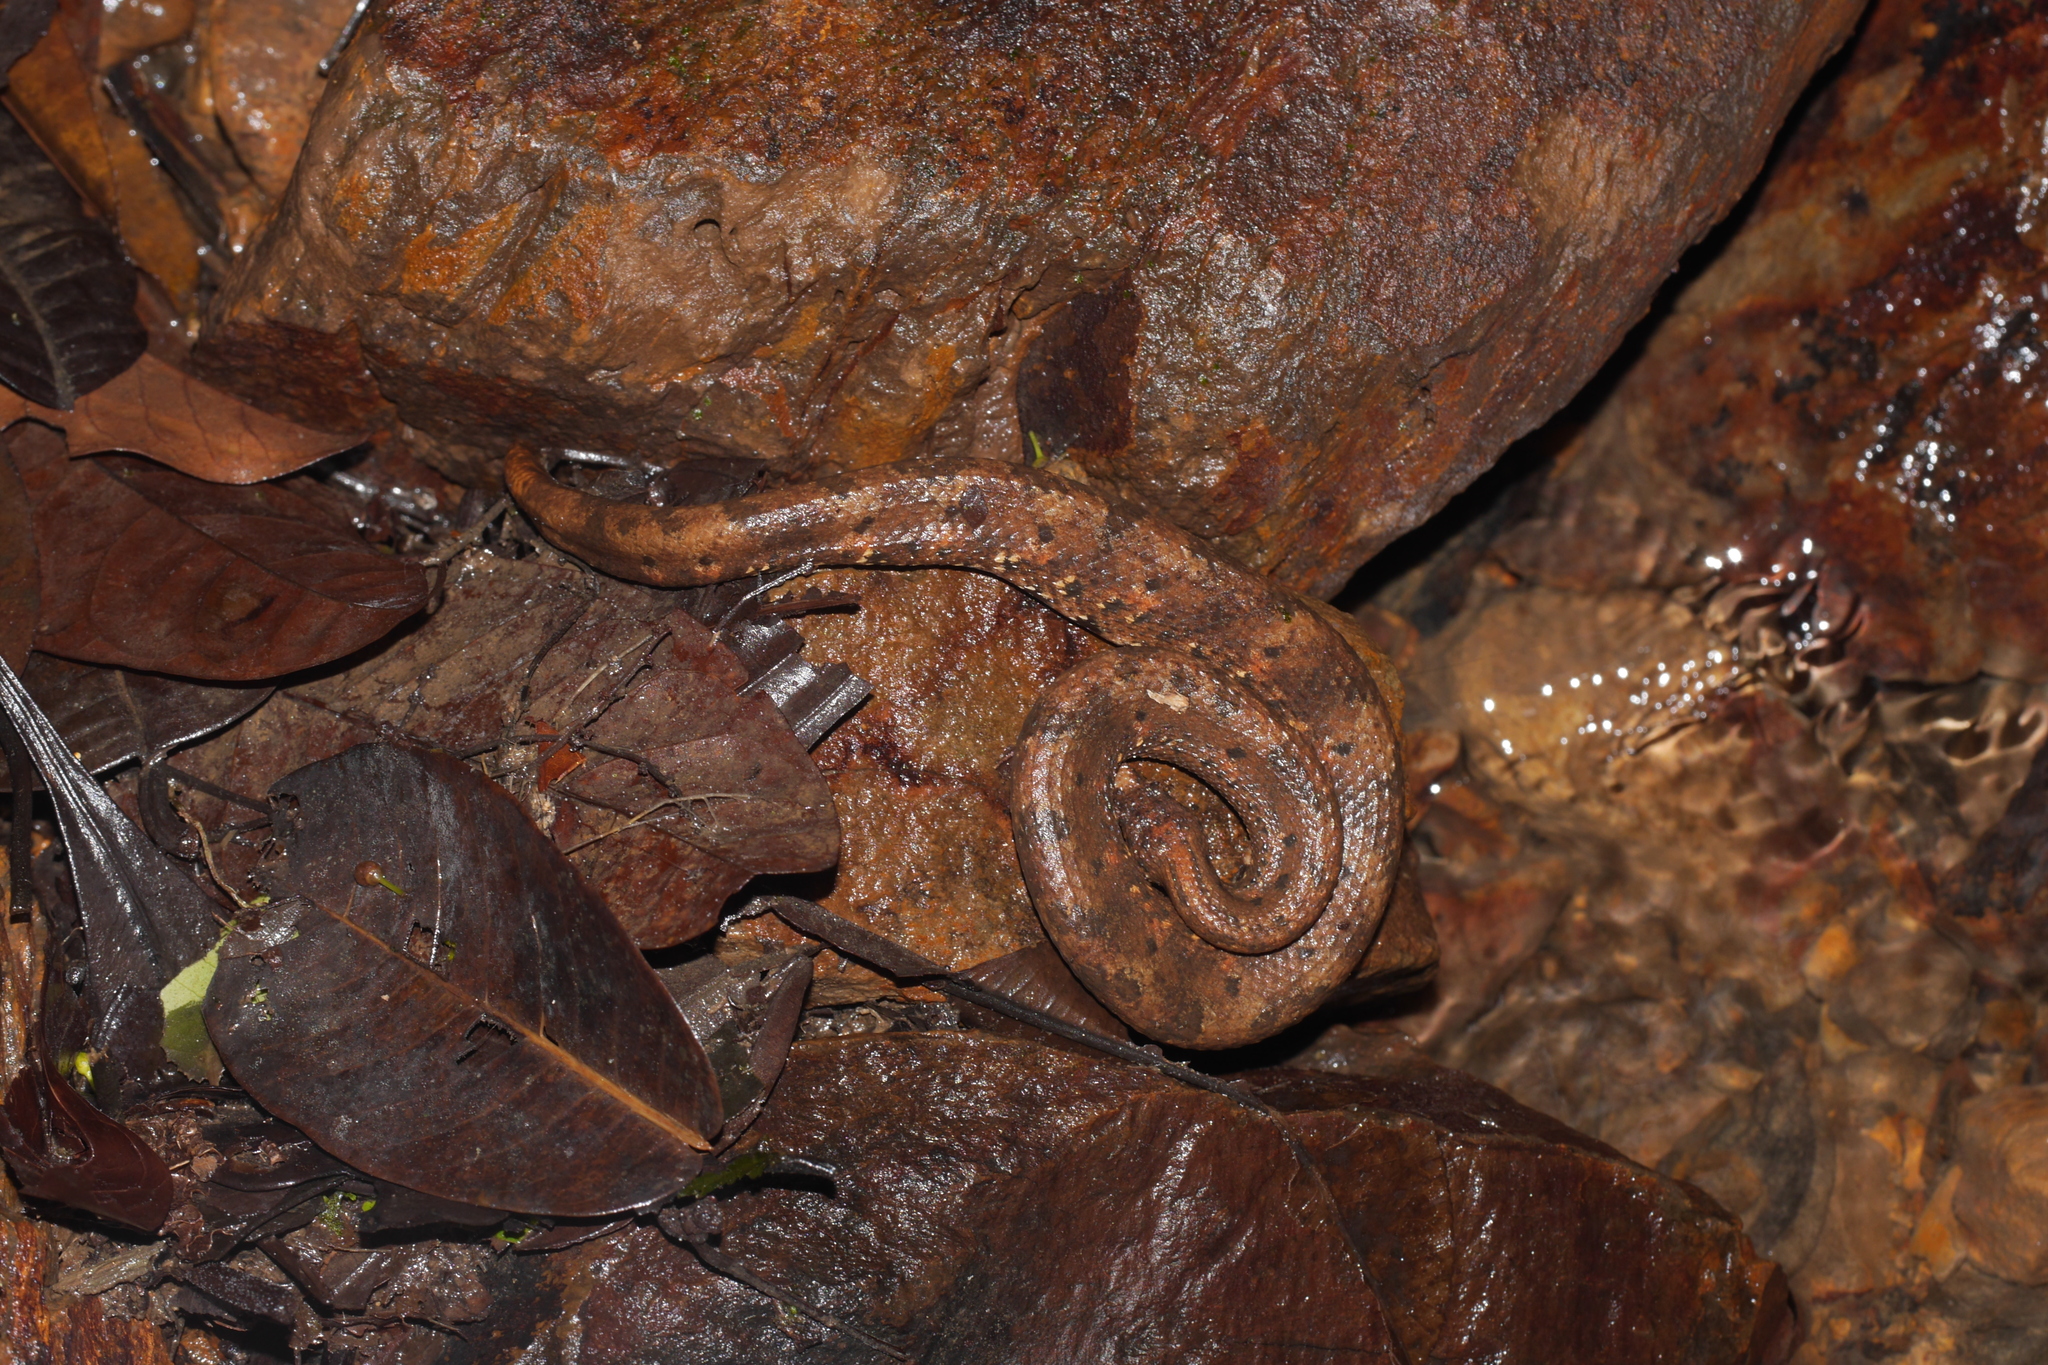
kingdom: Animalia
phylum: Chordata
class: Squamata
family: Tropidophiidae
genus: Trachyboa
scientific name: Trachyboa boulengeri
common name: Northern eyelash boa
